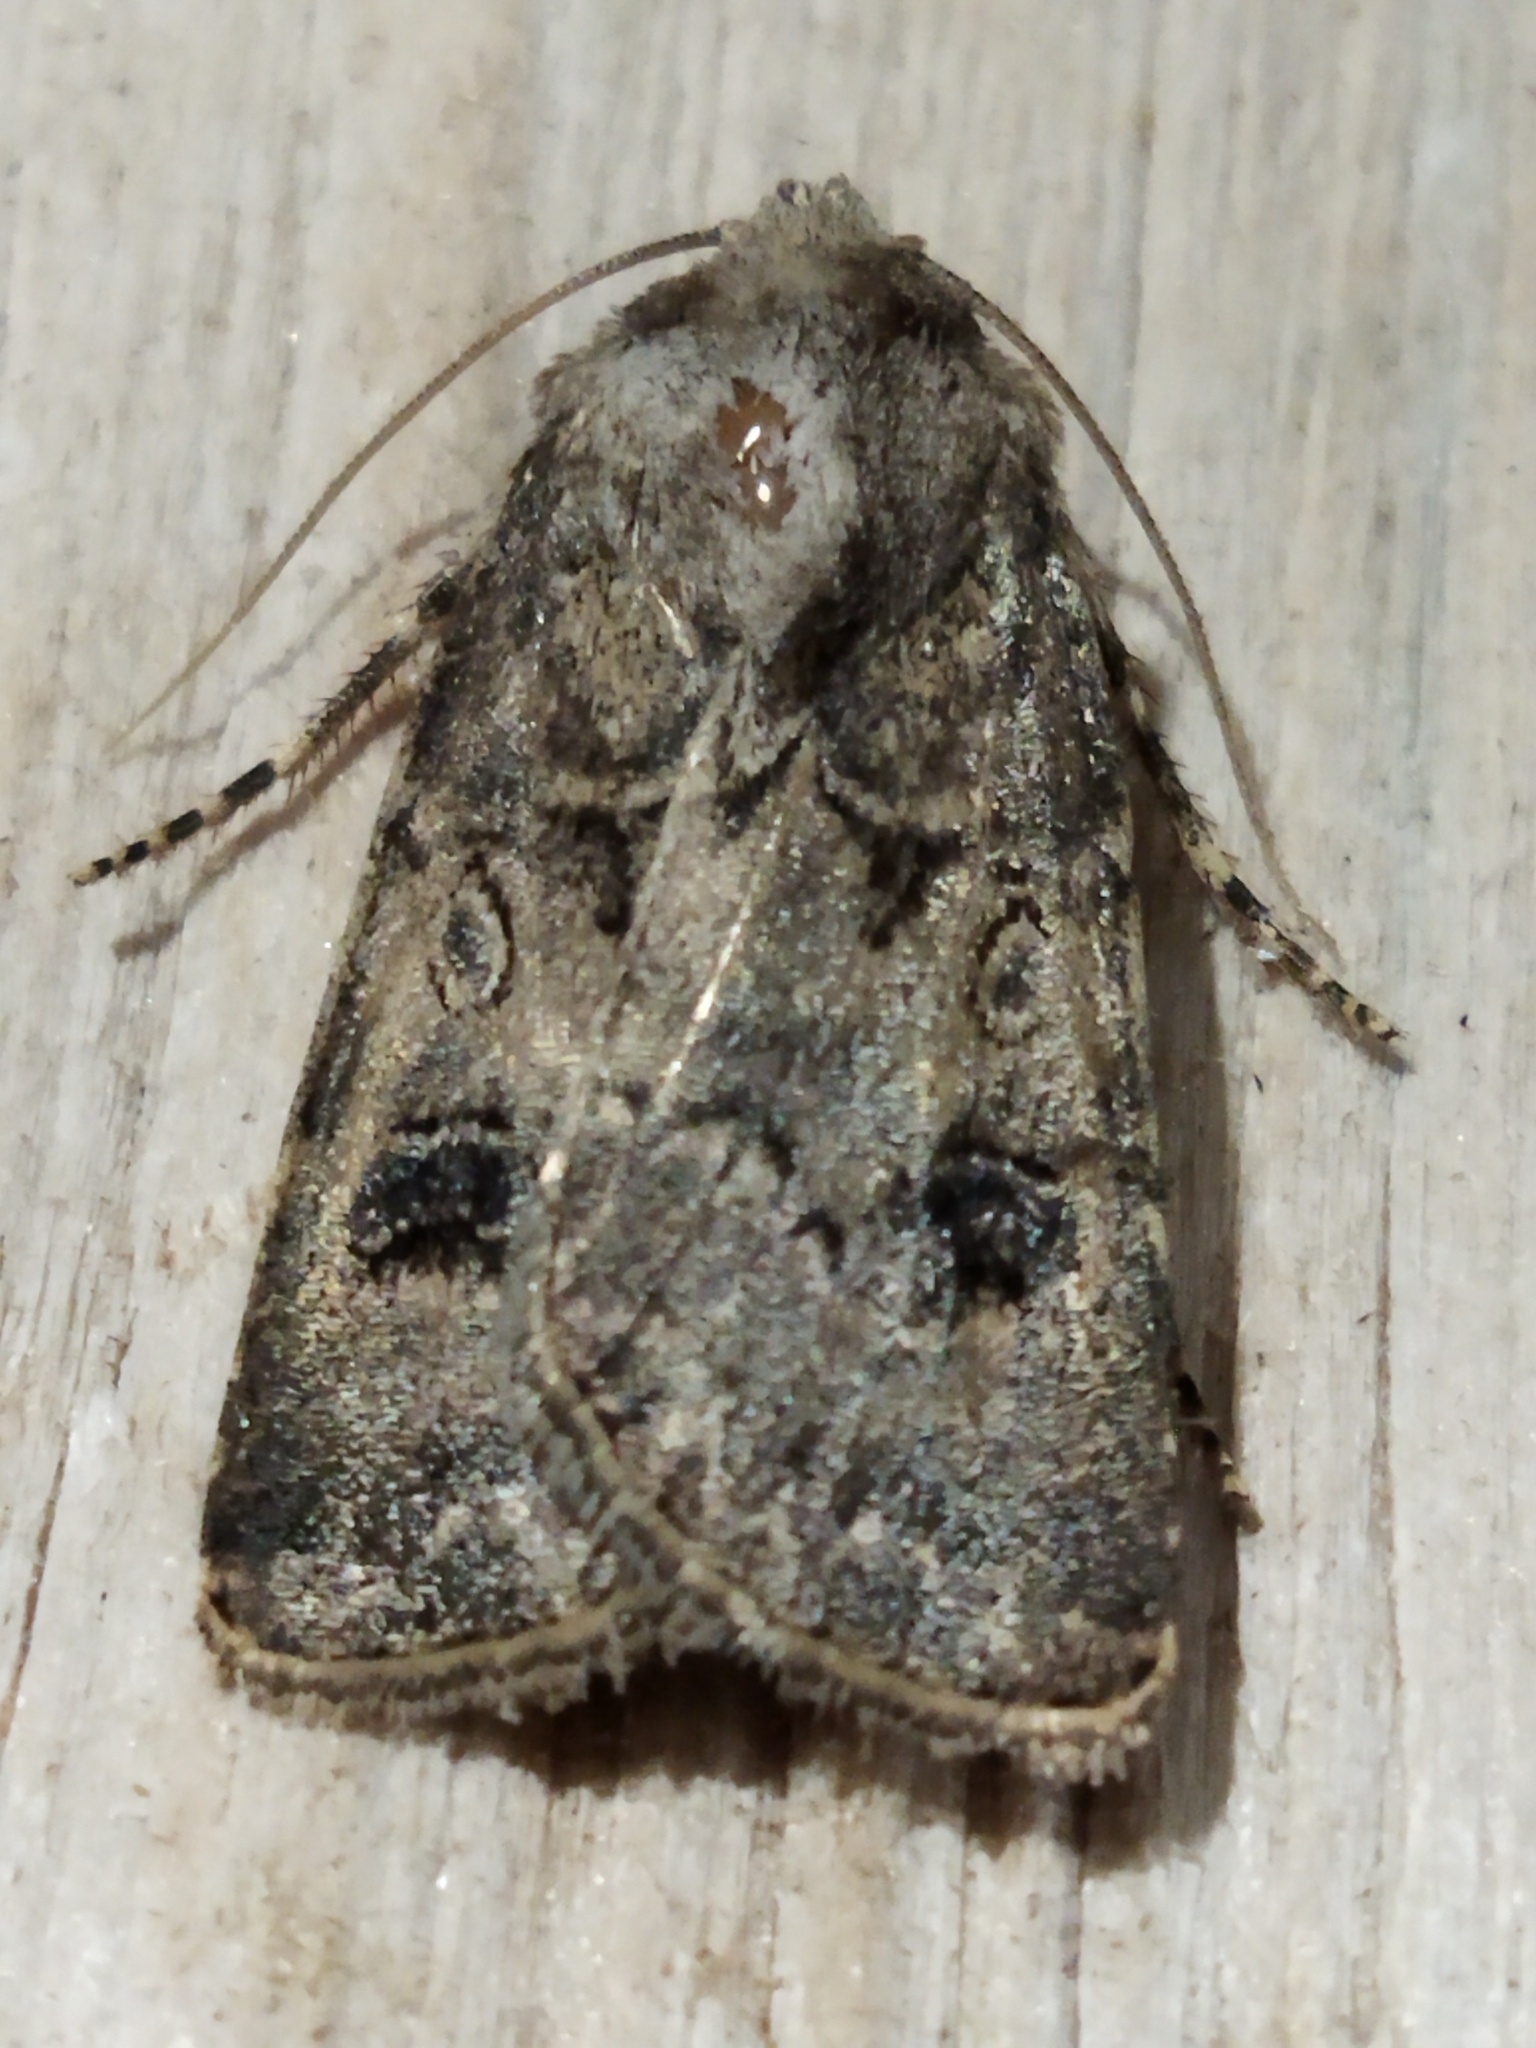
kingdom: Animalia
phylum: Arthropoda
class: Insecta
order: Lepidoptera
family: Noctuidae
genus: Agrotis
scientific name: Agrotis bigramma
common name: Great dart
